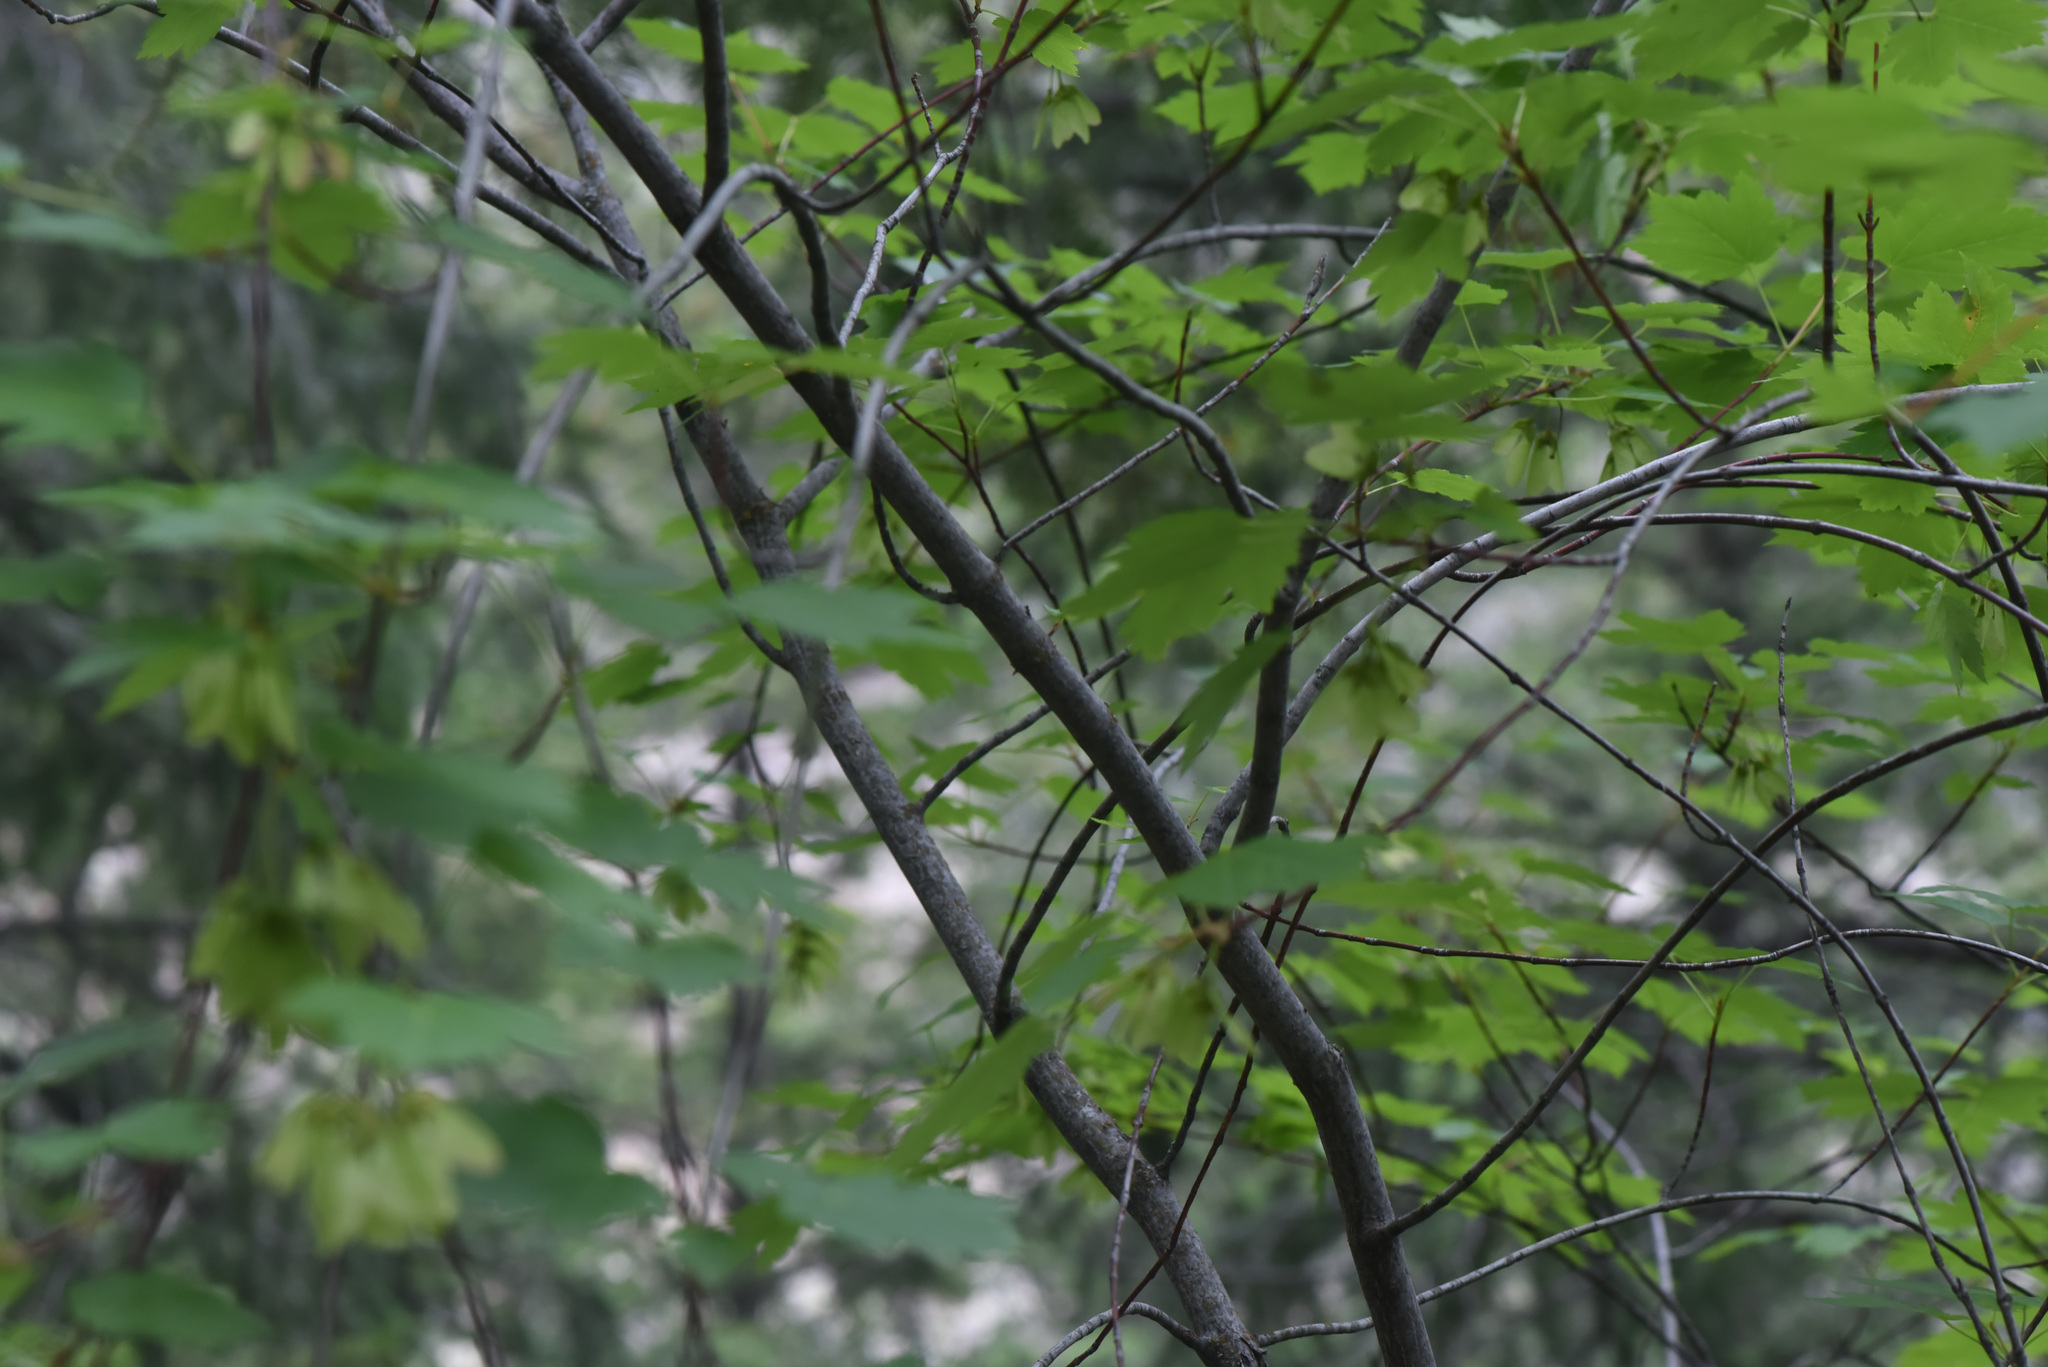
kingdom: Plantae
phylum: Tracheophyta
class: Magnoliopsida
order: Sapindales
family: Sapindaceae
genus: Acer
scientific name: Acer glabrum
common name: Rocky mountain maple
